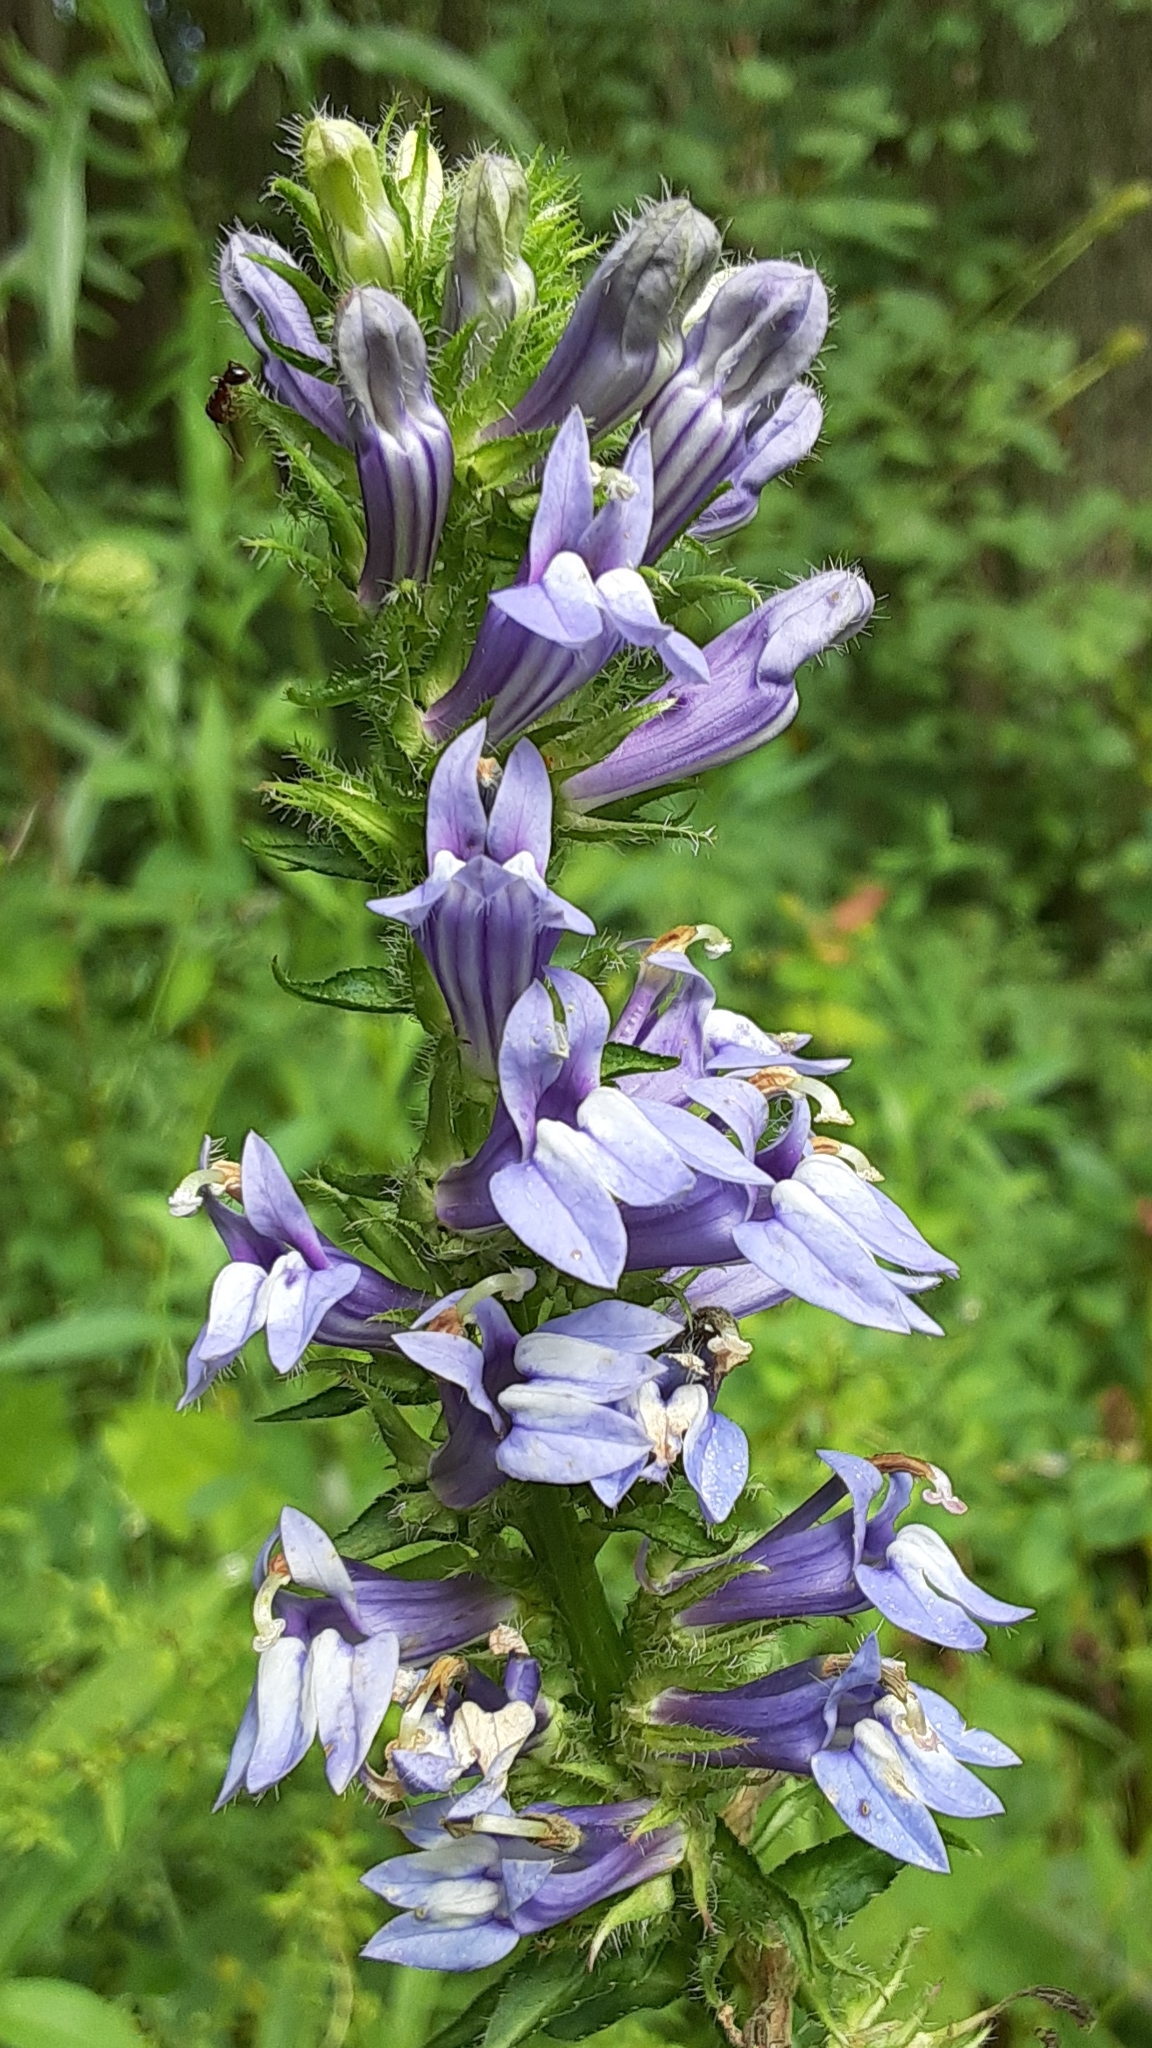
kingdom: Plantae
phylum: Tracheophyta
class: Magnoliopsida
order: Asterales
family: Campanulaceae
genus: Lobelia
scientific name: Lobelia siphilitica
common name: Great lobelia
